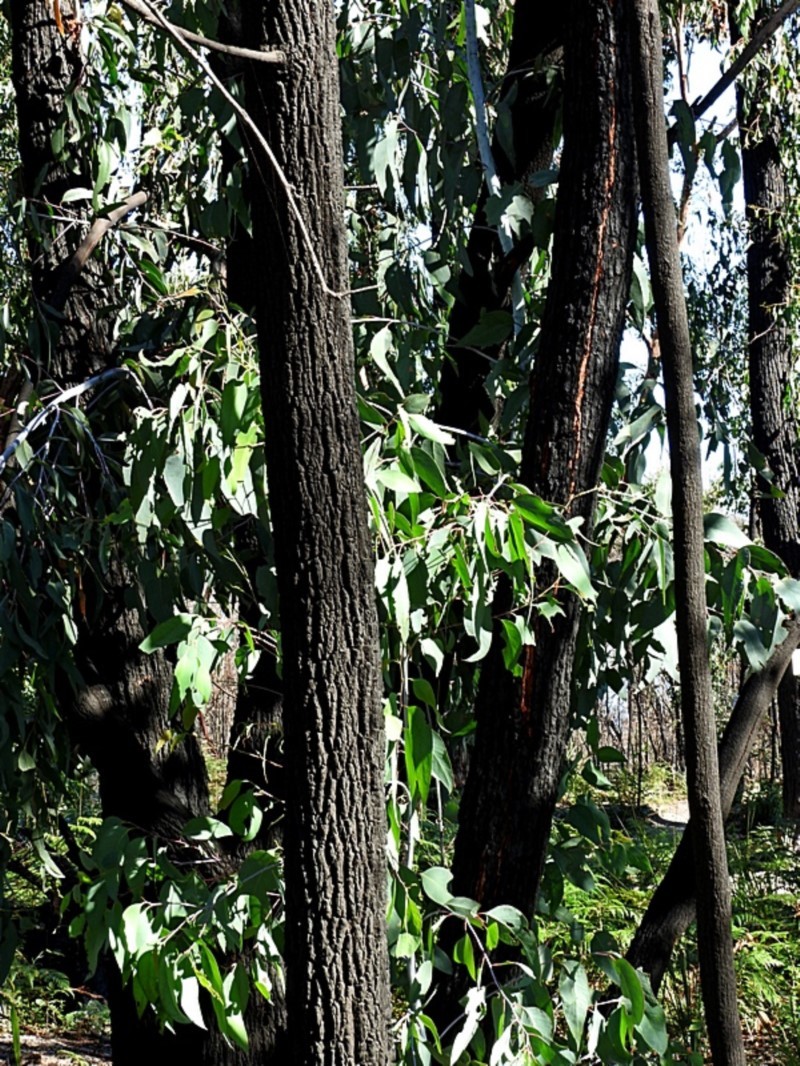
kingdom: Plantae
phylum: Tracheophyta
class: Magnoliopsida
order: Myrtales
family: Myrtaceae
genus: Eucalyptus
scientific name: Eucalyptus sieberi
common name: Black-ash
